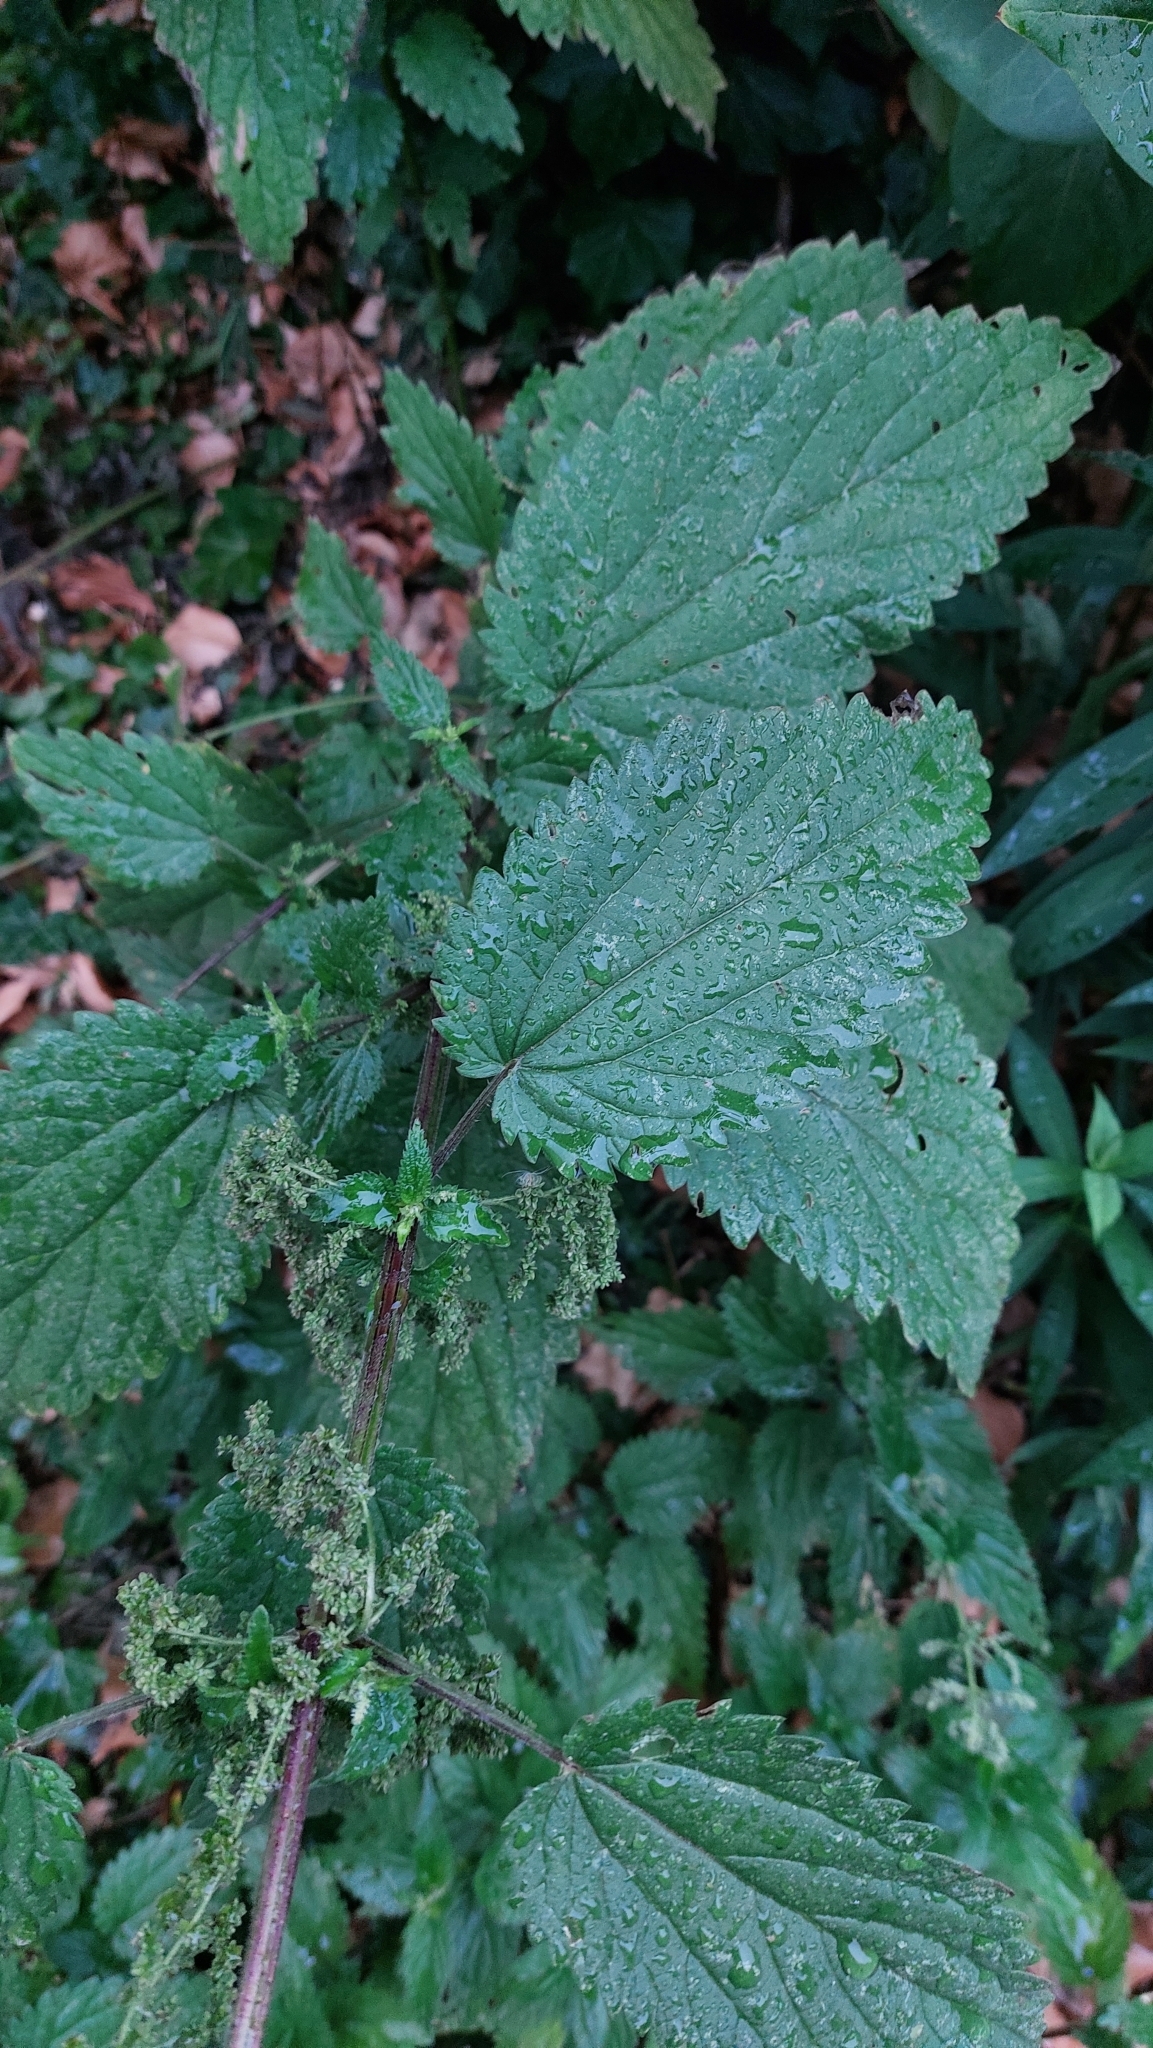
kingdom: Plantae
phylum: Tracheophyta
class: Magnoliopsida
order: Rosales
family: Urticaceae
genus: Urtica
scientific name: Urtica dioica
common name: Common nettle
